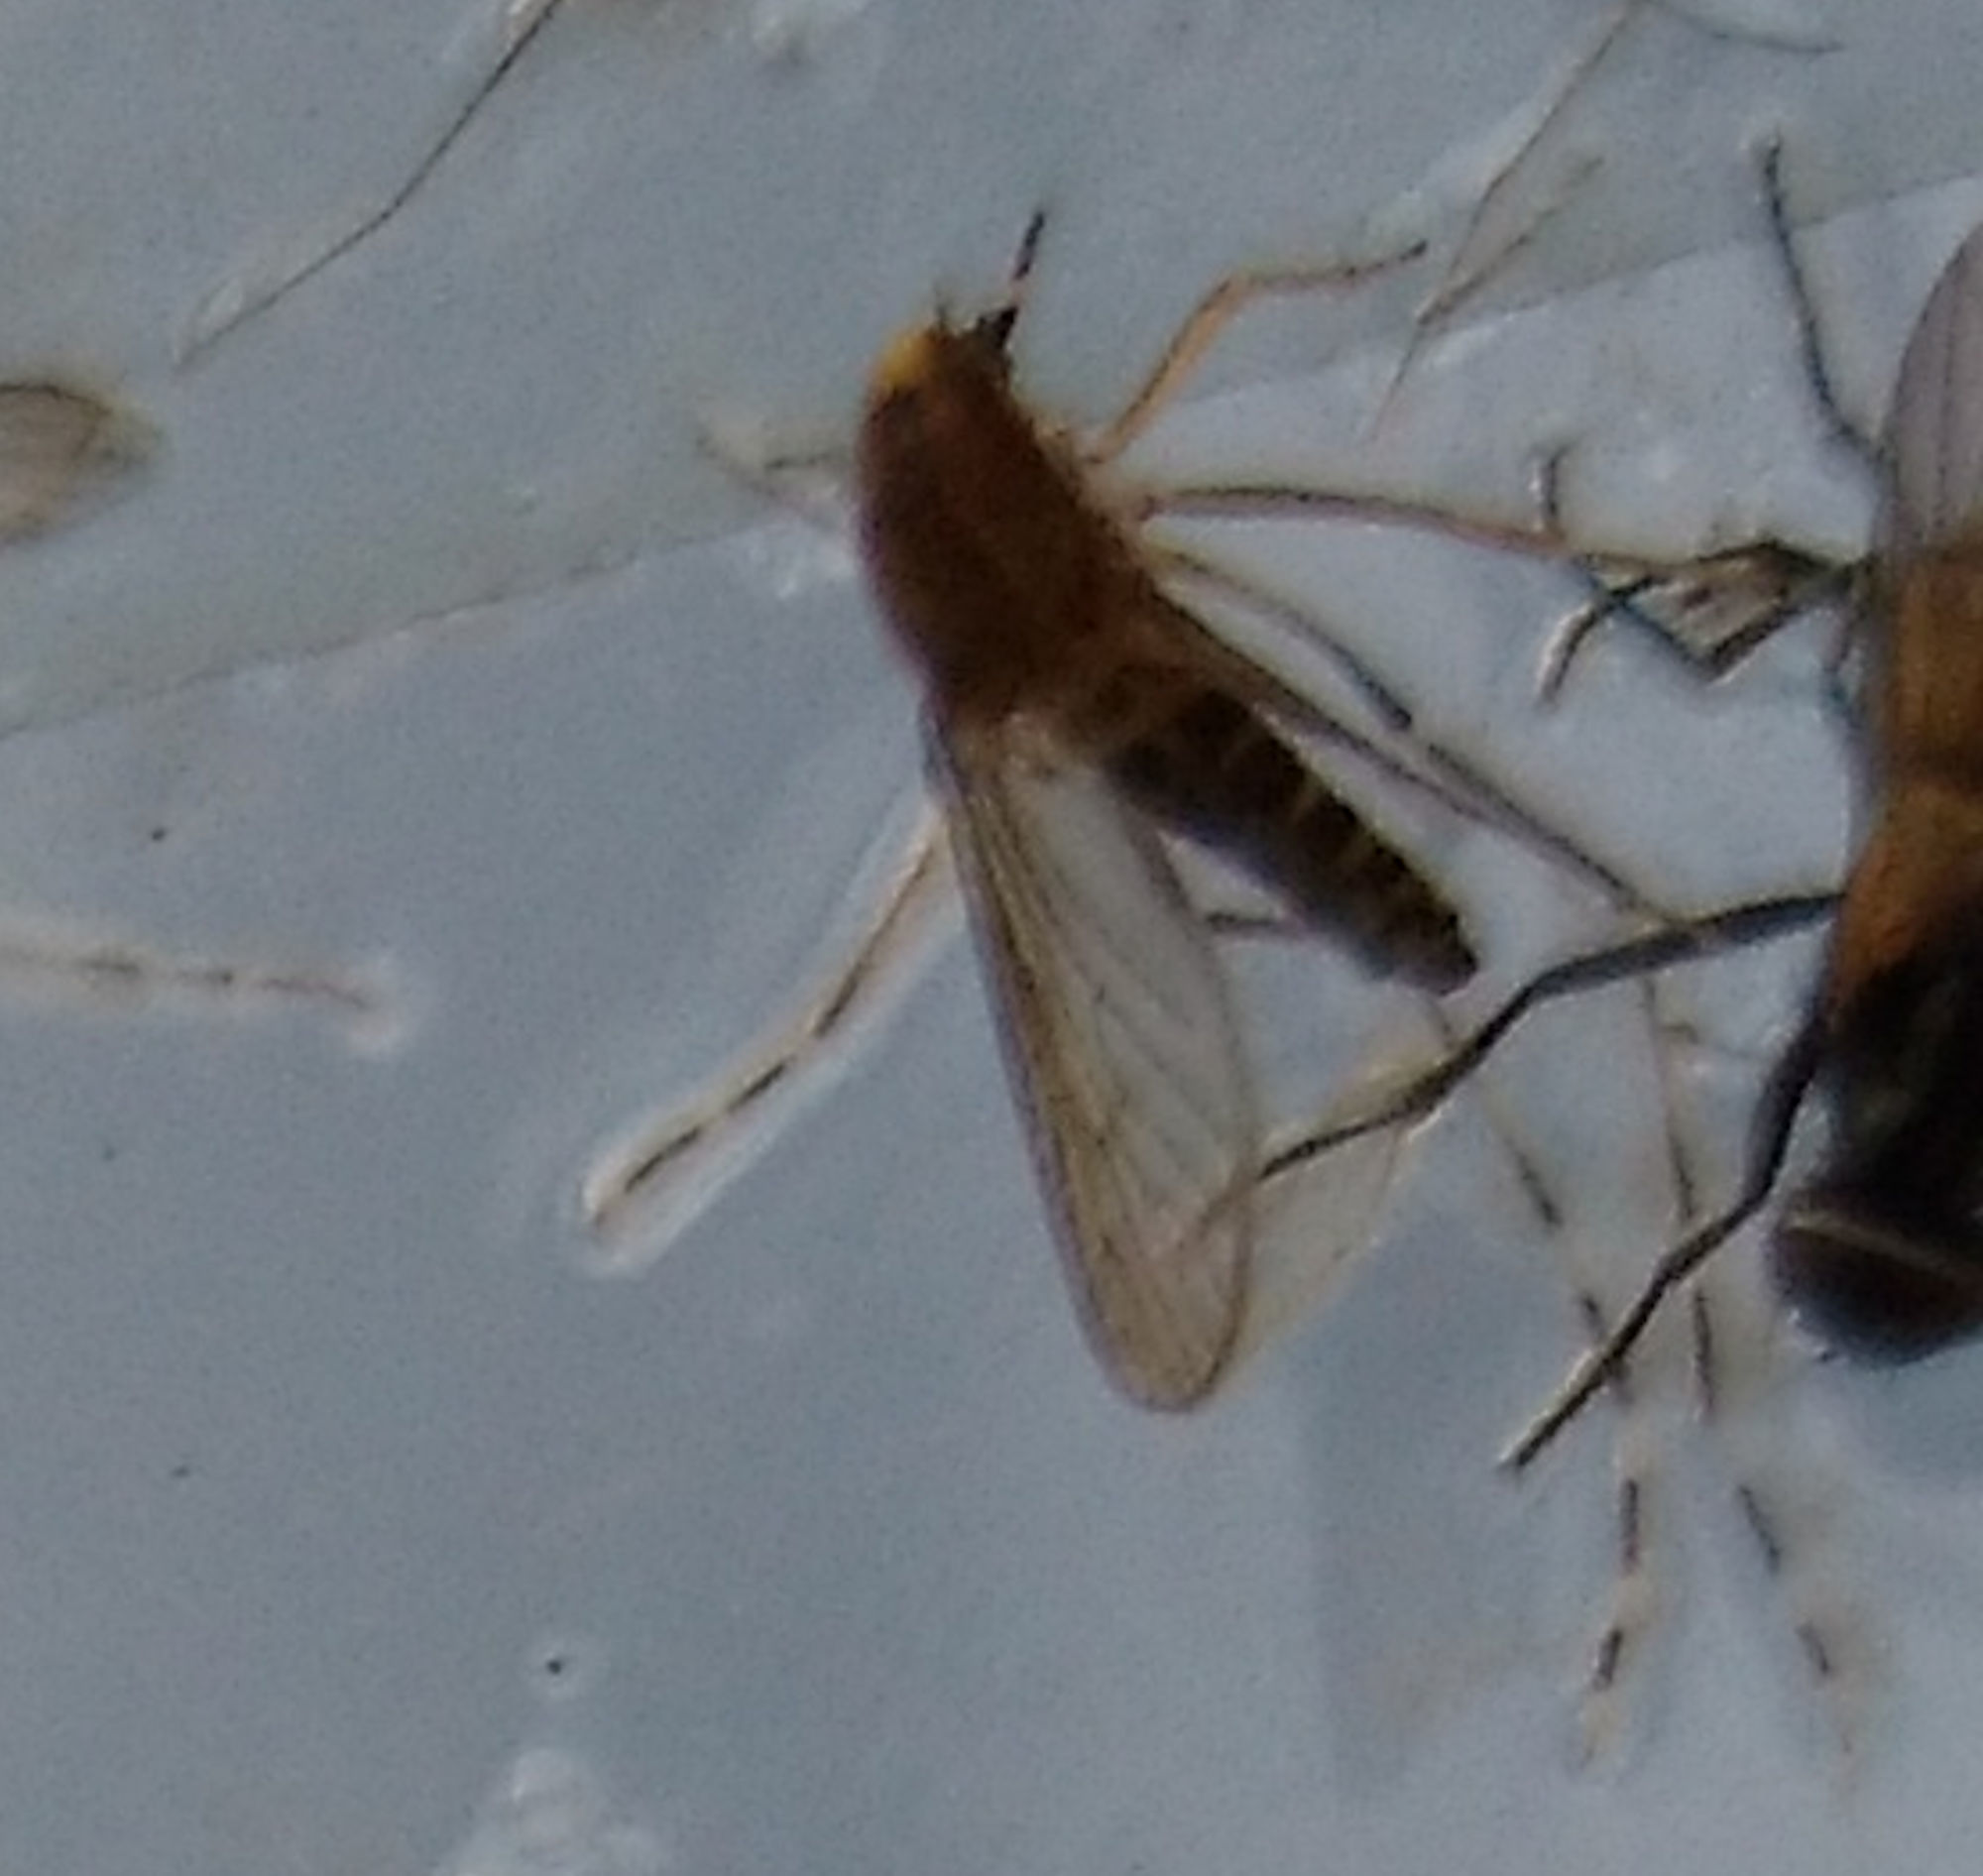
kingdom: Animalia
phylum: Arthropoda
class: Insecta
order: Diptera
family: Culicidae
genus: Aedes
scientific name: Aedes sollicitans
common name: Saltmarsh mosquito
